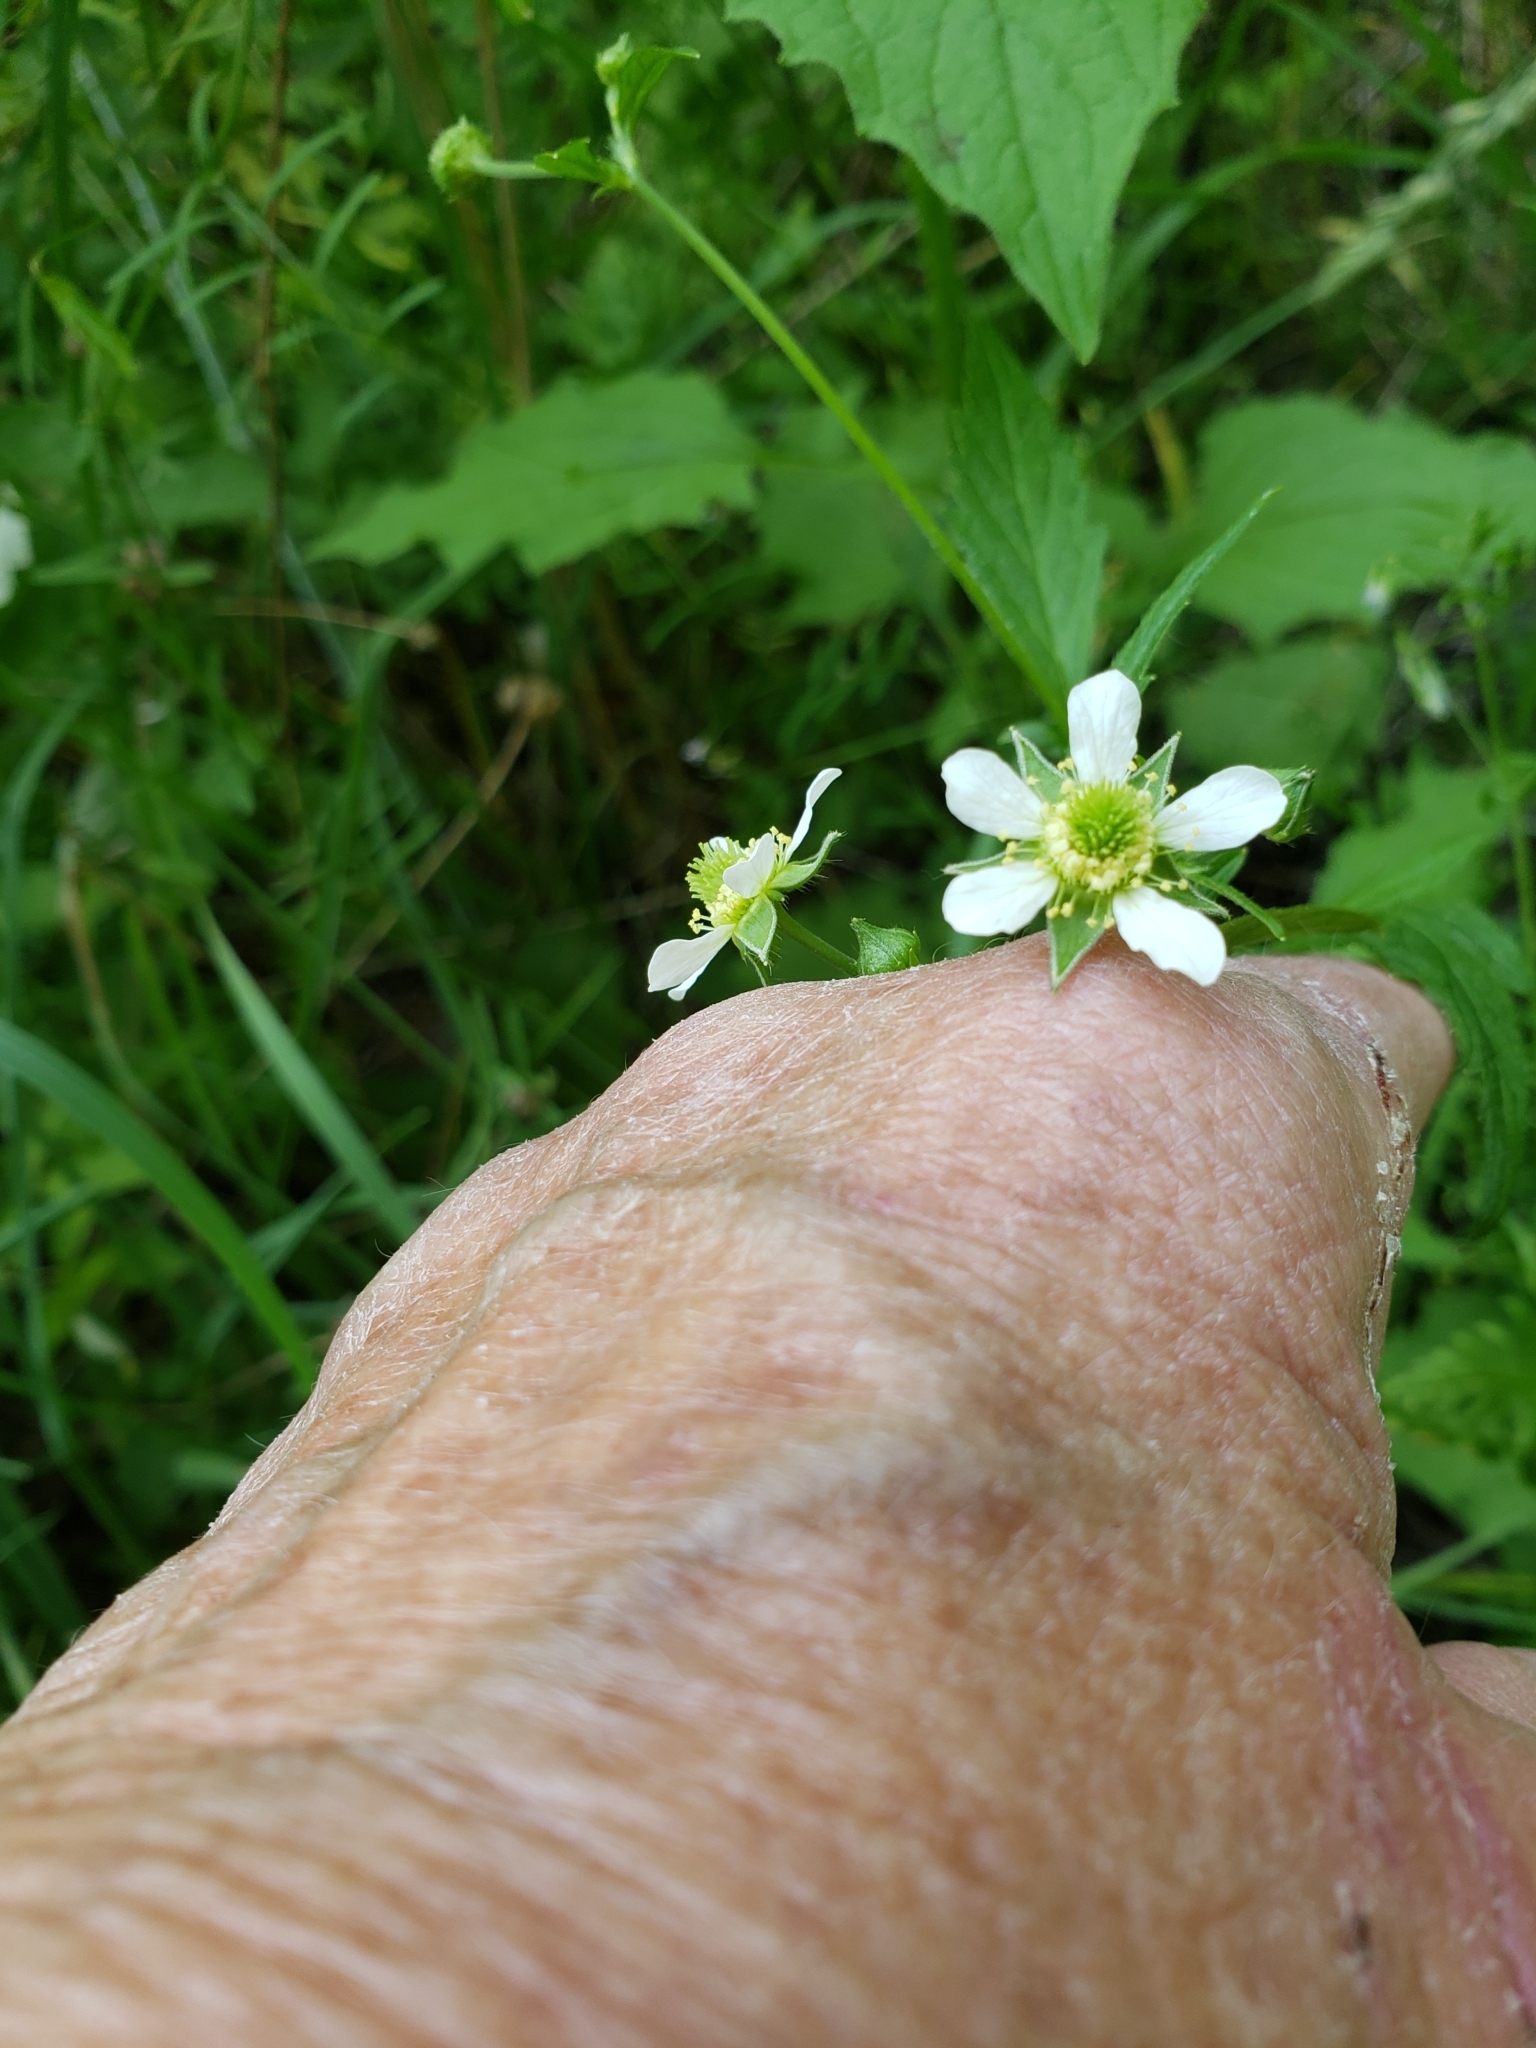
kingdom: Plantae
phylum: Tracheophyta
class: Magnoliopsida
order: Rosales
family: Rosaceae
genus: Geum
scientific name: Geum canadense
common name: White avens
